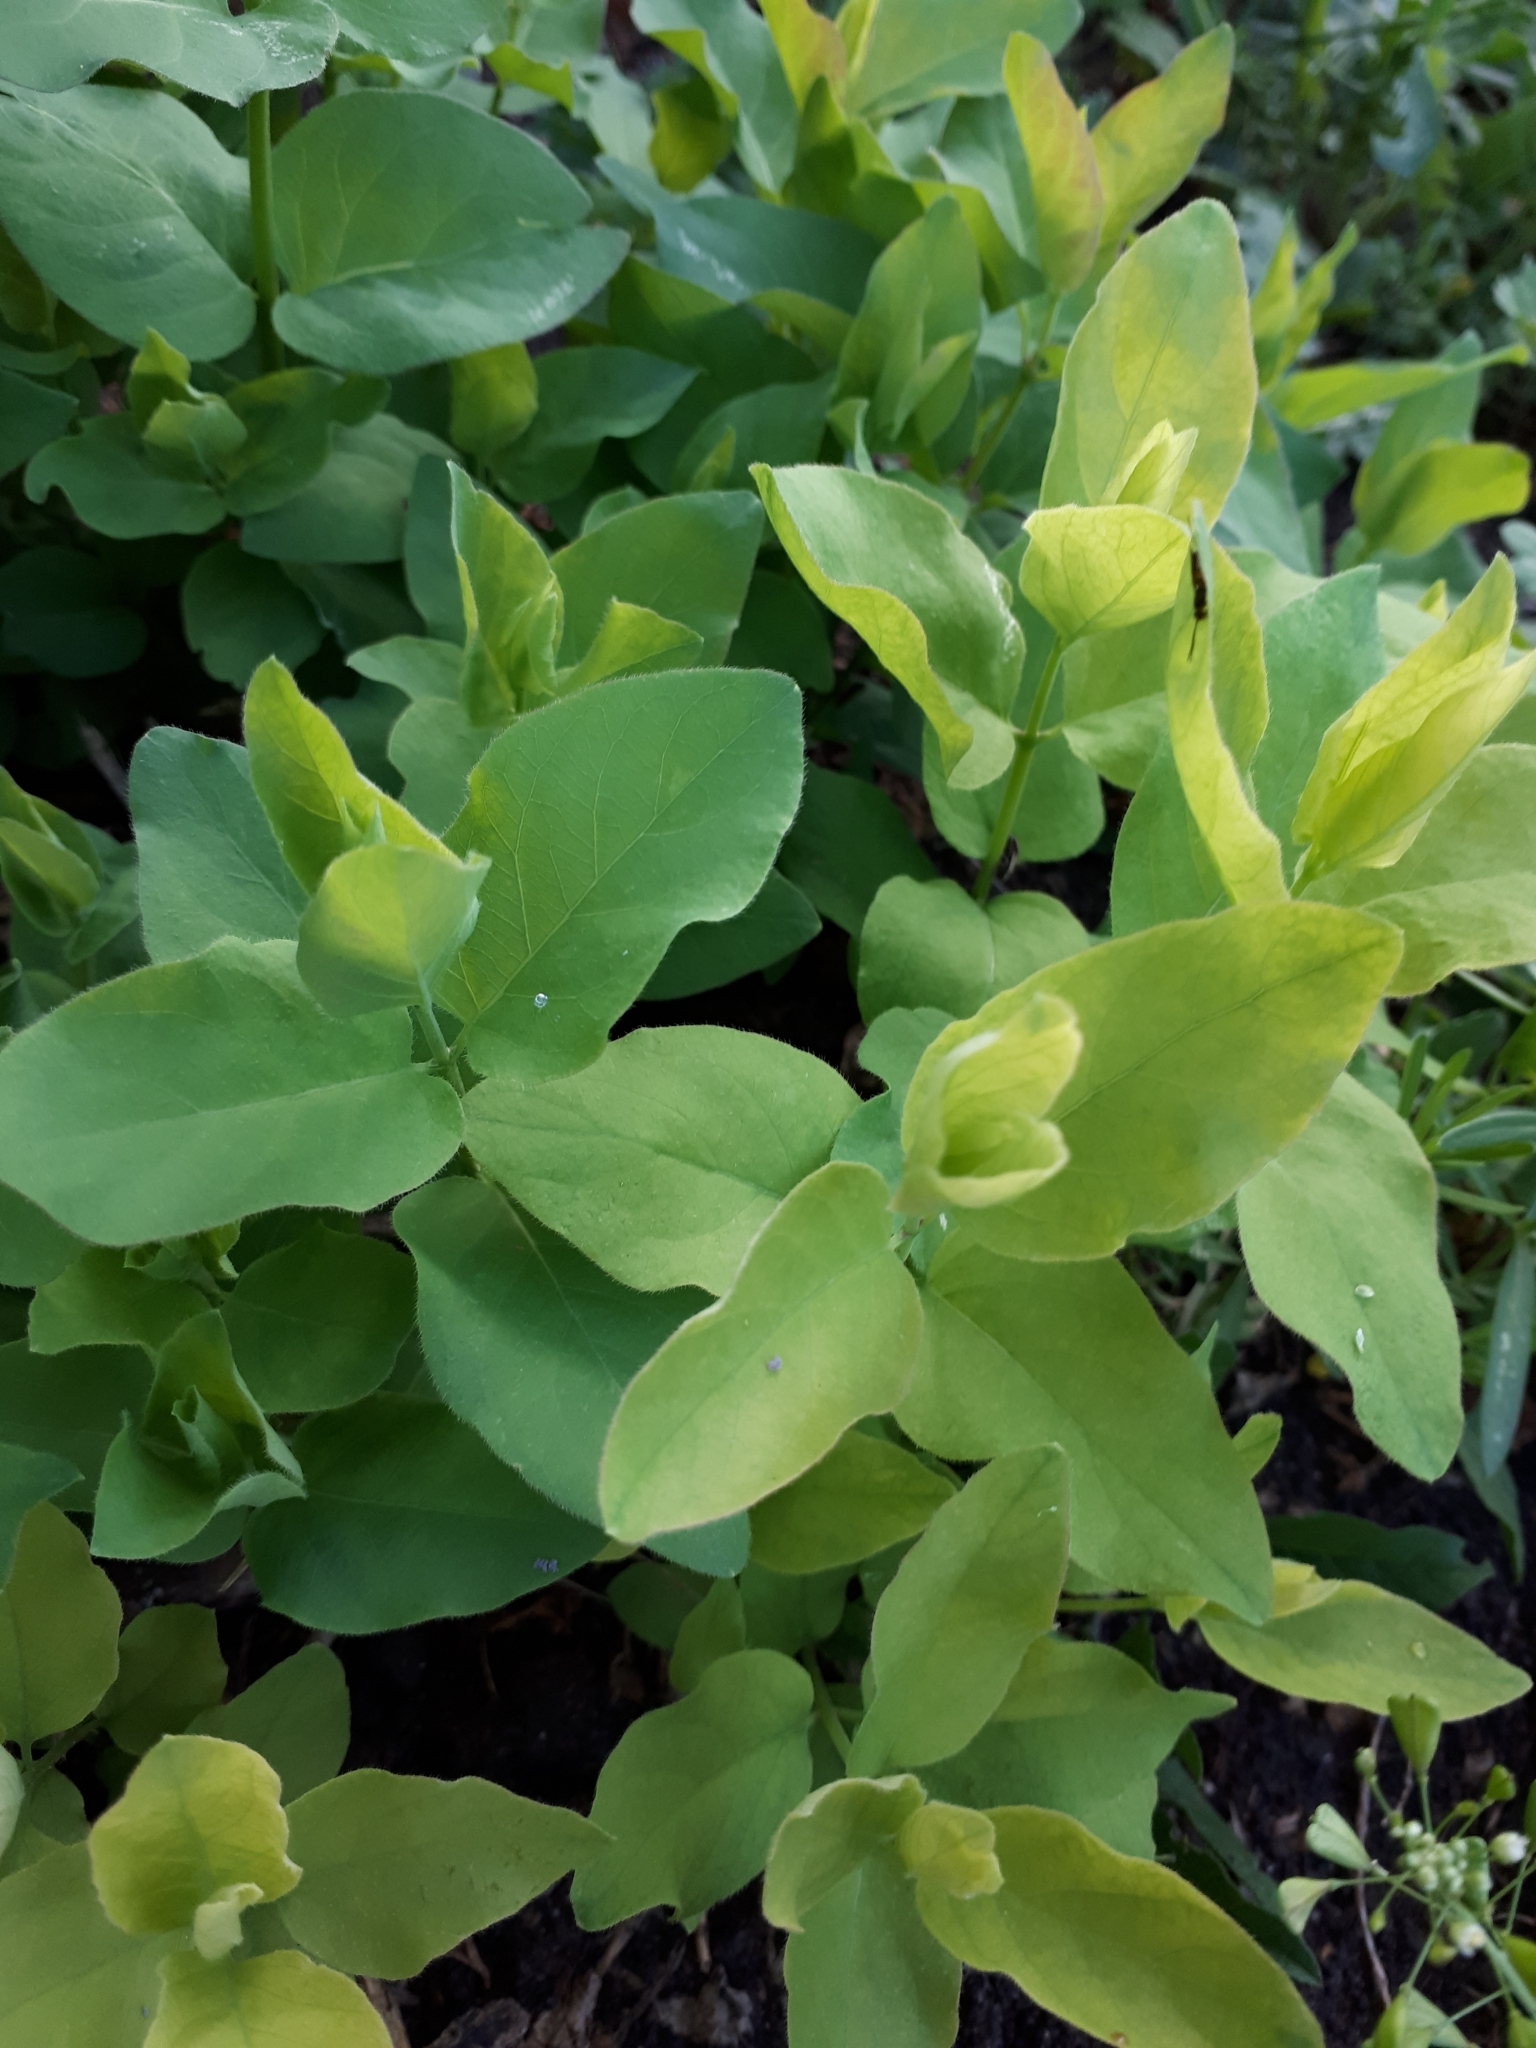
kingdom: Plantae
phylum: Tracheophyta
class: Magnoliopsida
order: Caryophyllales
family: Nyctaginaceae
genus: Mirabilis
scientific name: Mirabilis nyctaginea
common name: Umbrella wort
